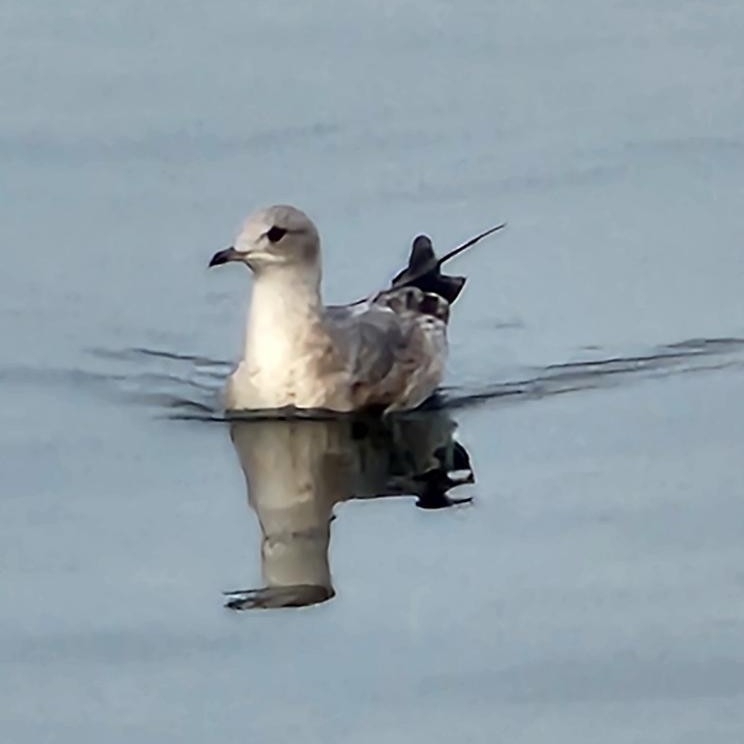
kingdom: Animalia
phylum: Chordata
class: Aves
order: Charadriiformes
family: Laridae
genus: Larus
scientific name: Larus brachyrhynchus
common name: Short-billed gull
